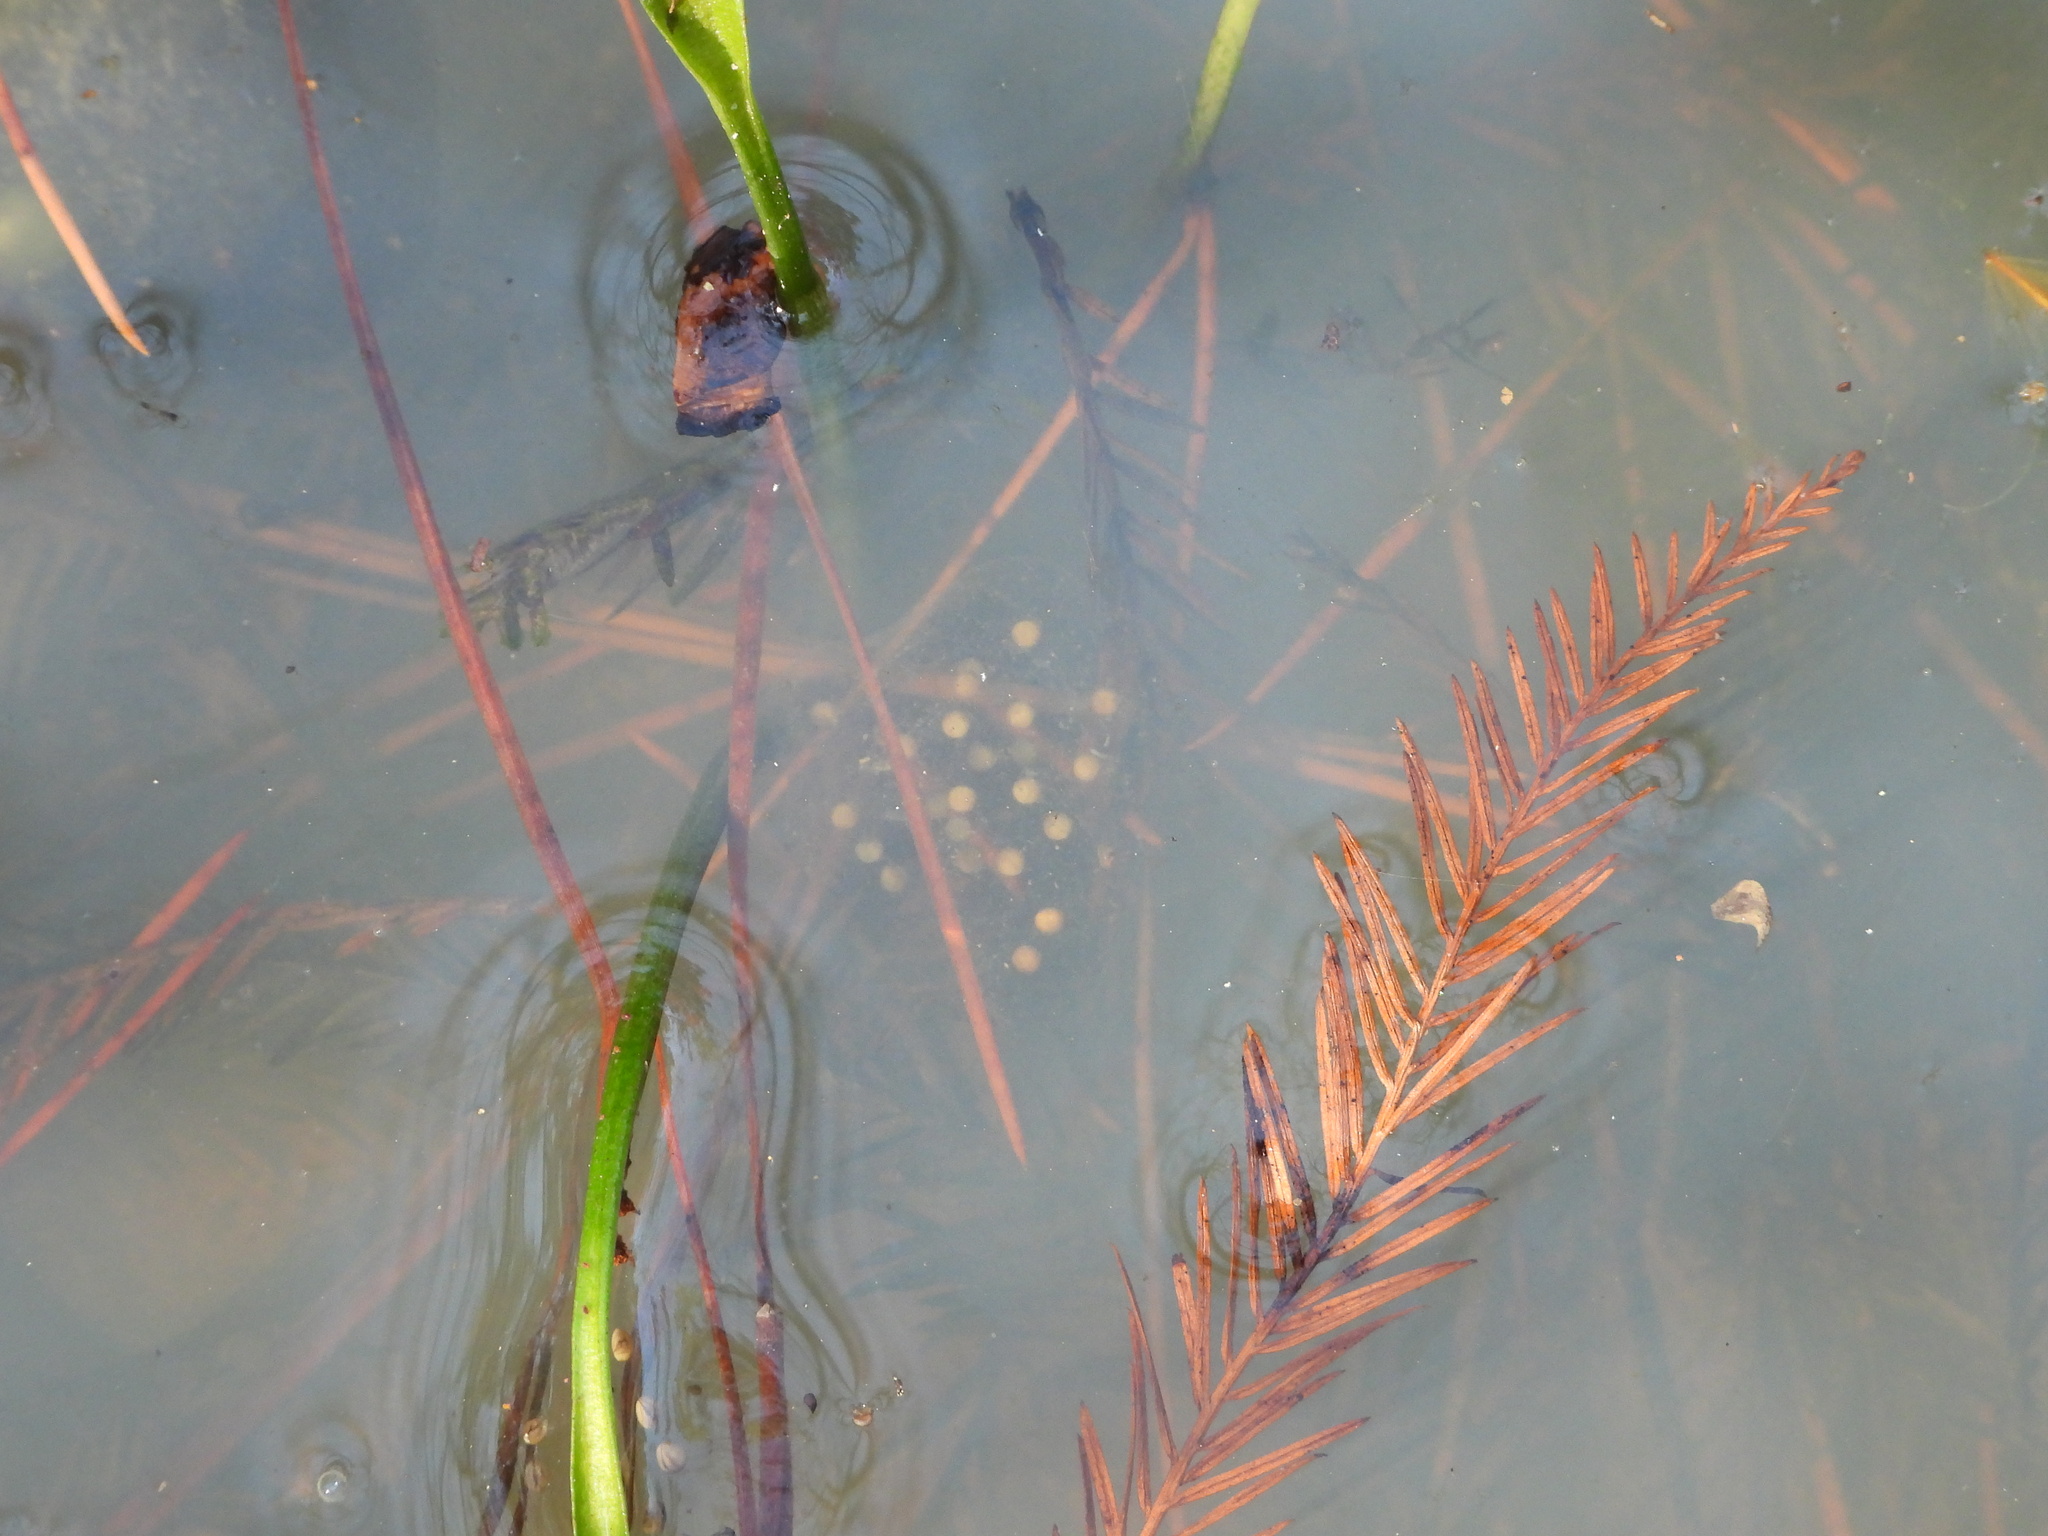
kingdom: Animalia
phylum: Chordata
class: Amphibia
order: Anura
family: Hylidae
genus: Pseudacris
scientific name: Pseudacris feriarum
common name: Upland chorus frog
